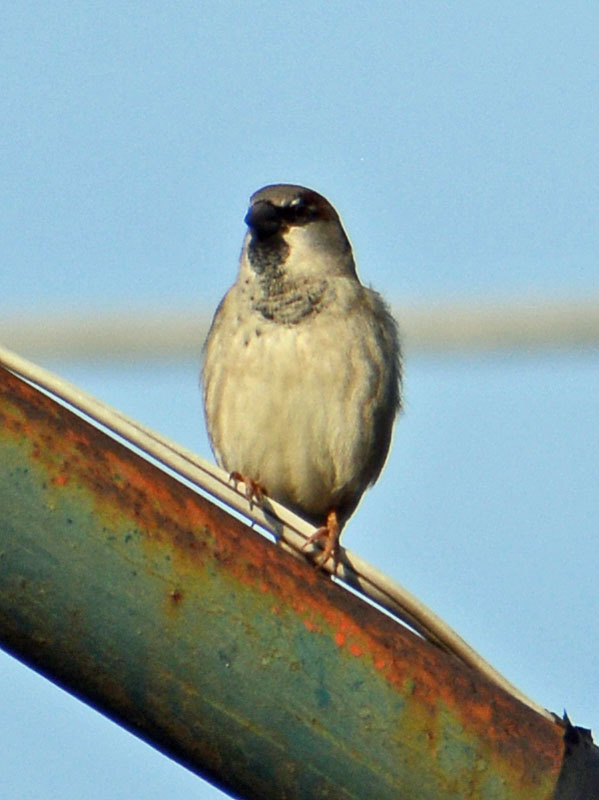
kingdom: Animalia
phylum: Chordata
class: Aves
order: Passeriformes
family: Passeridae
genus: Passer
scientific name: Passer domesticus
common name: House sparrow
